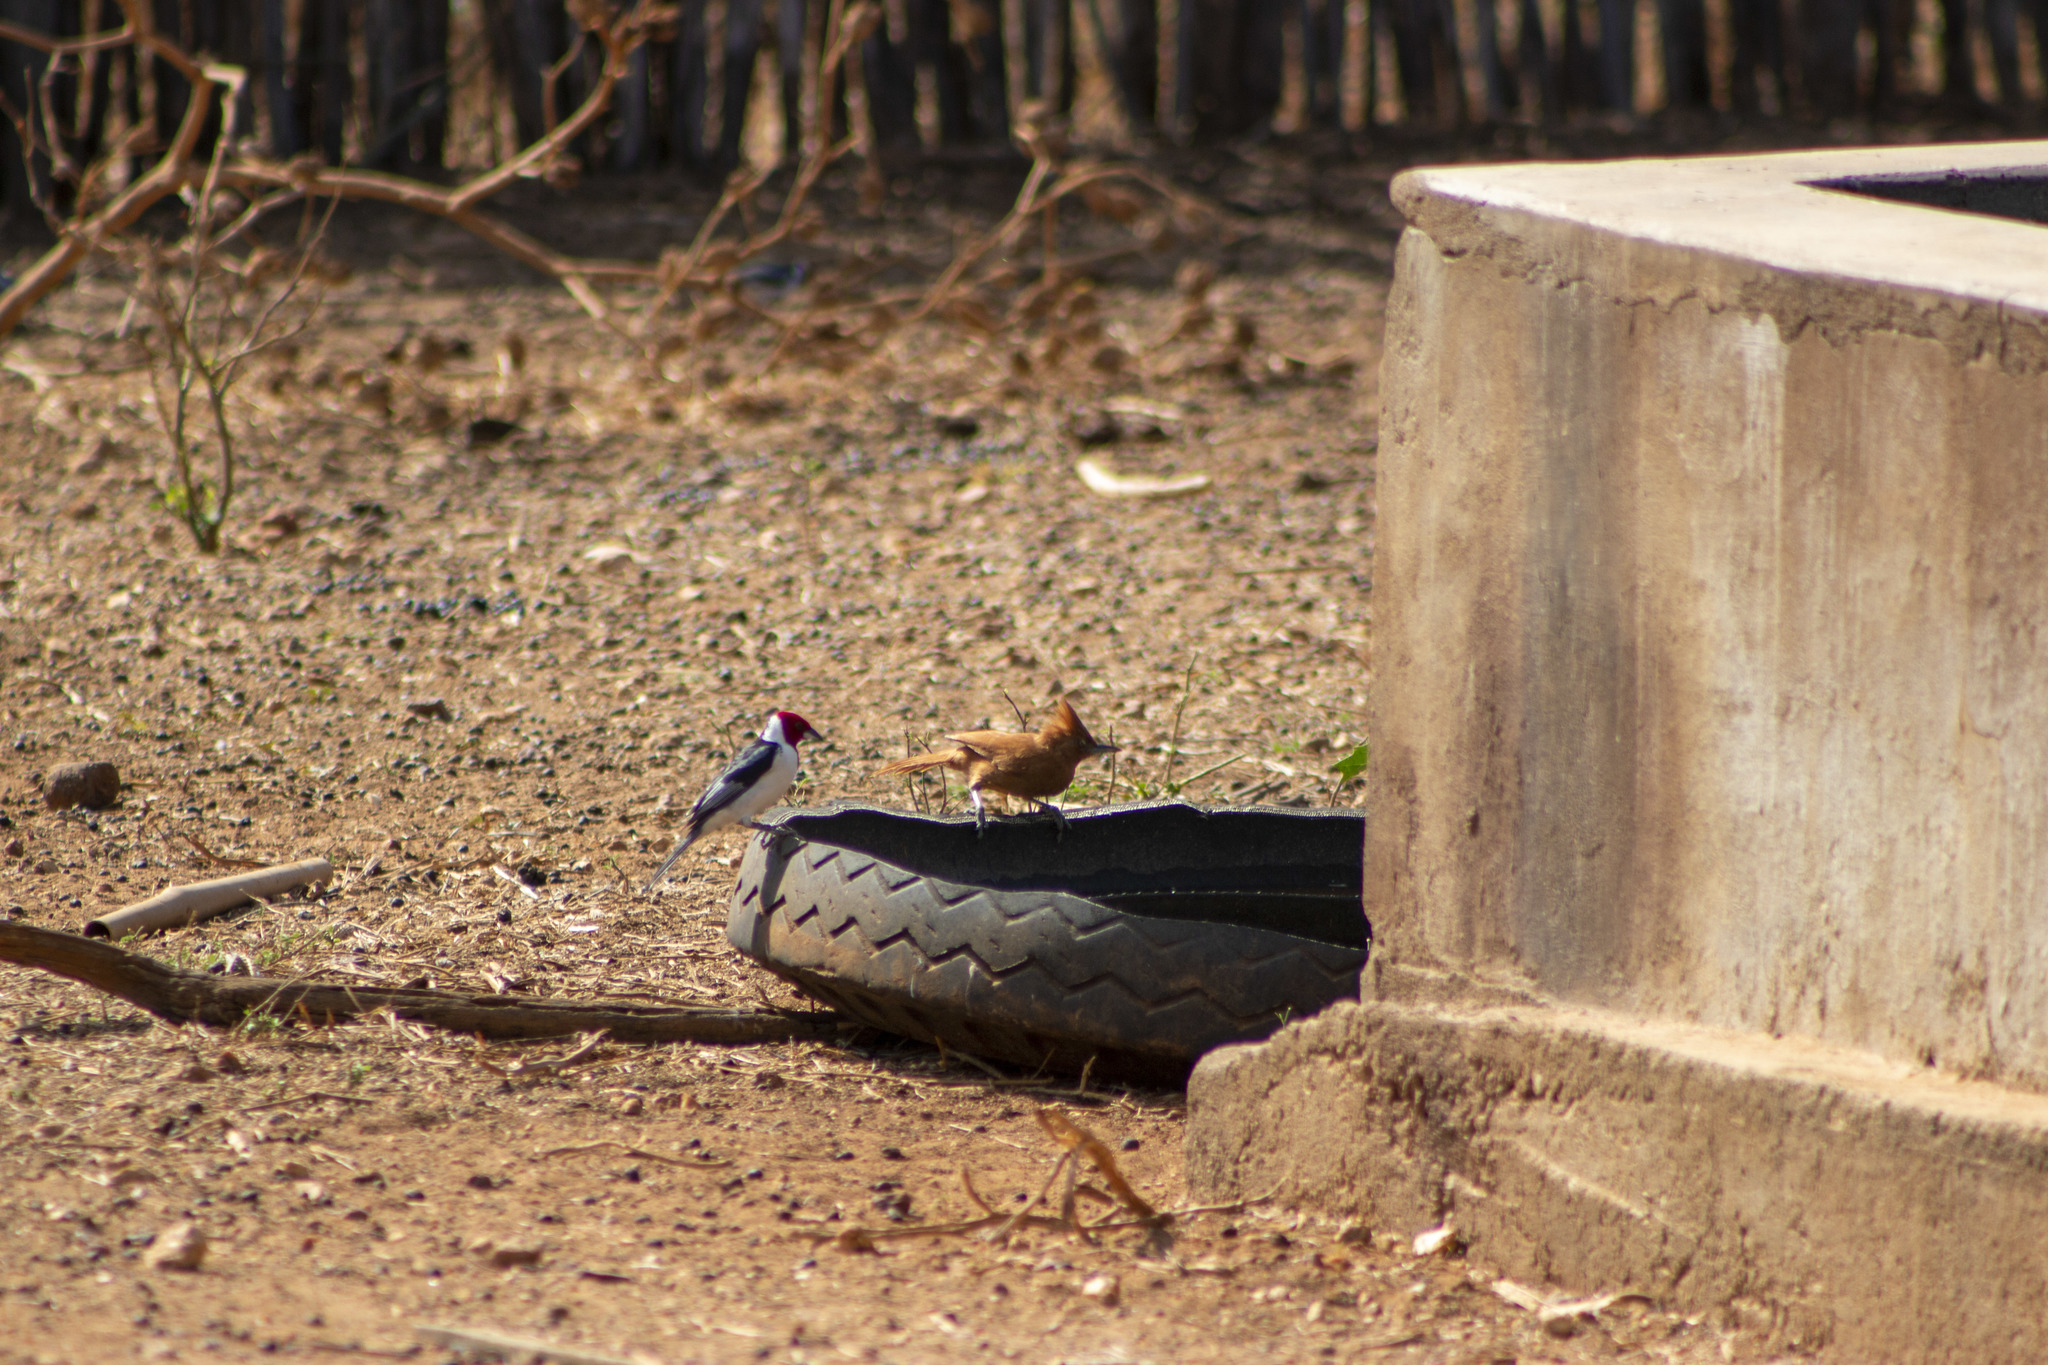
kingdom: Animalia
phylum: Chordata
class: Aves
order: Passeriformes
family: Furnariidae
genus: Pseudoseisura
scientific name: Pseudoseisura cristata
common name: Caatinga cacholote
